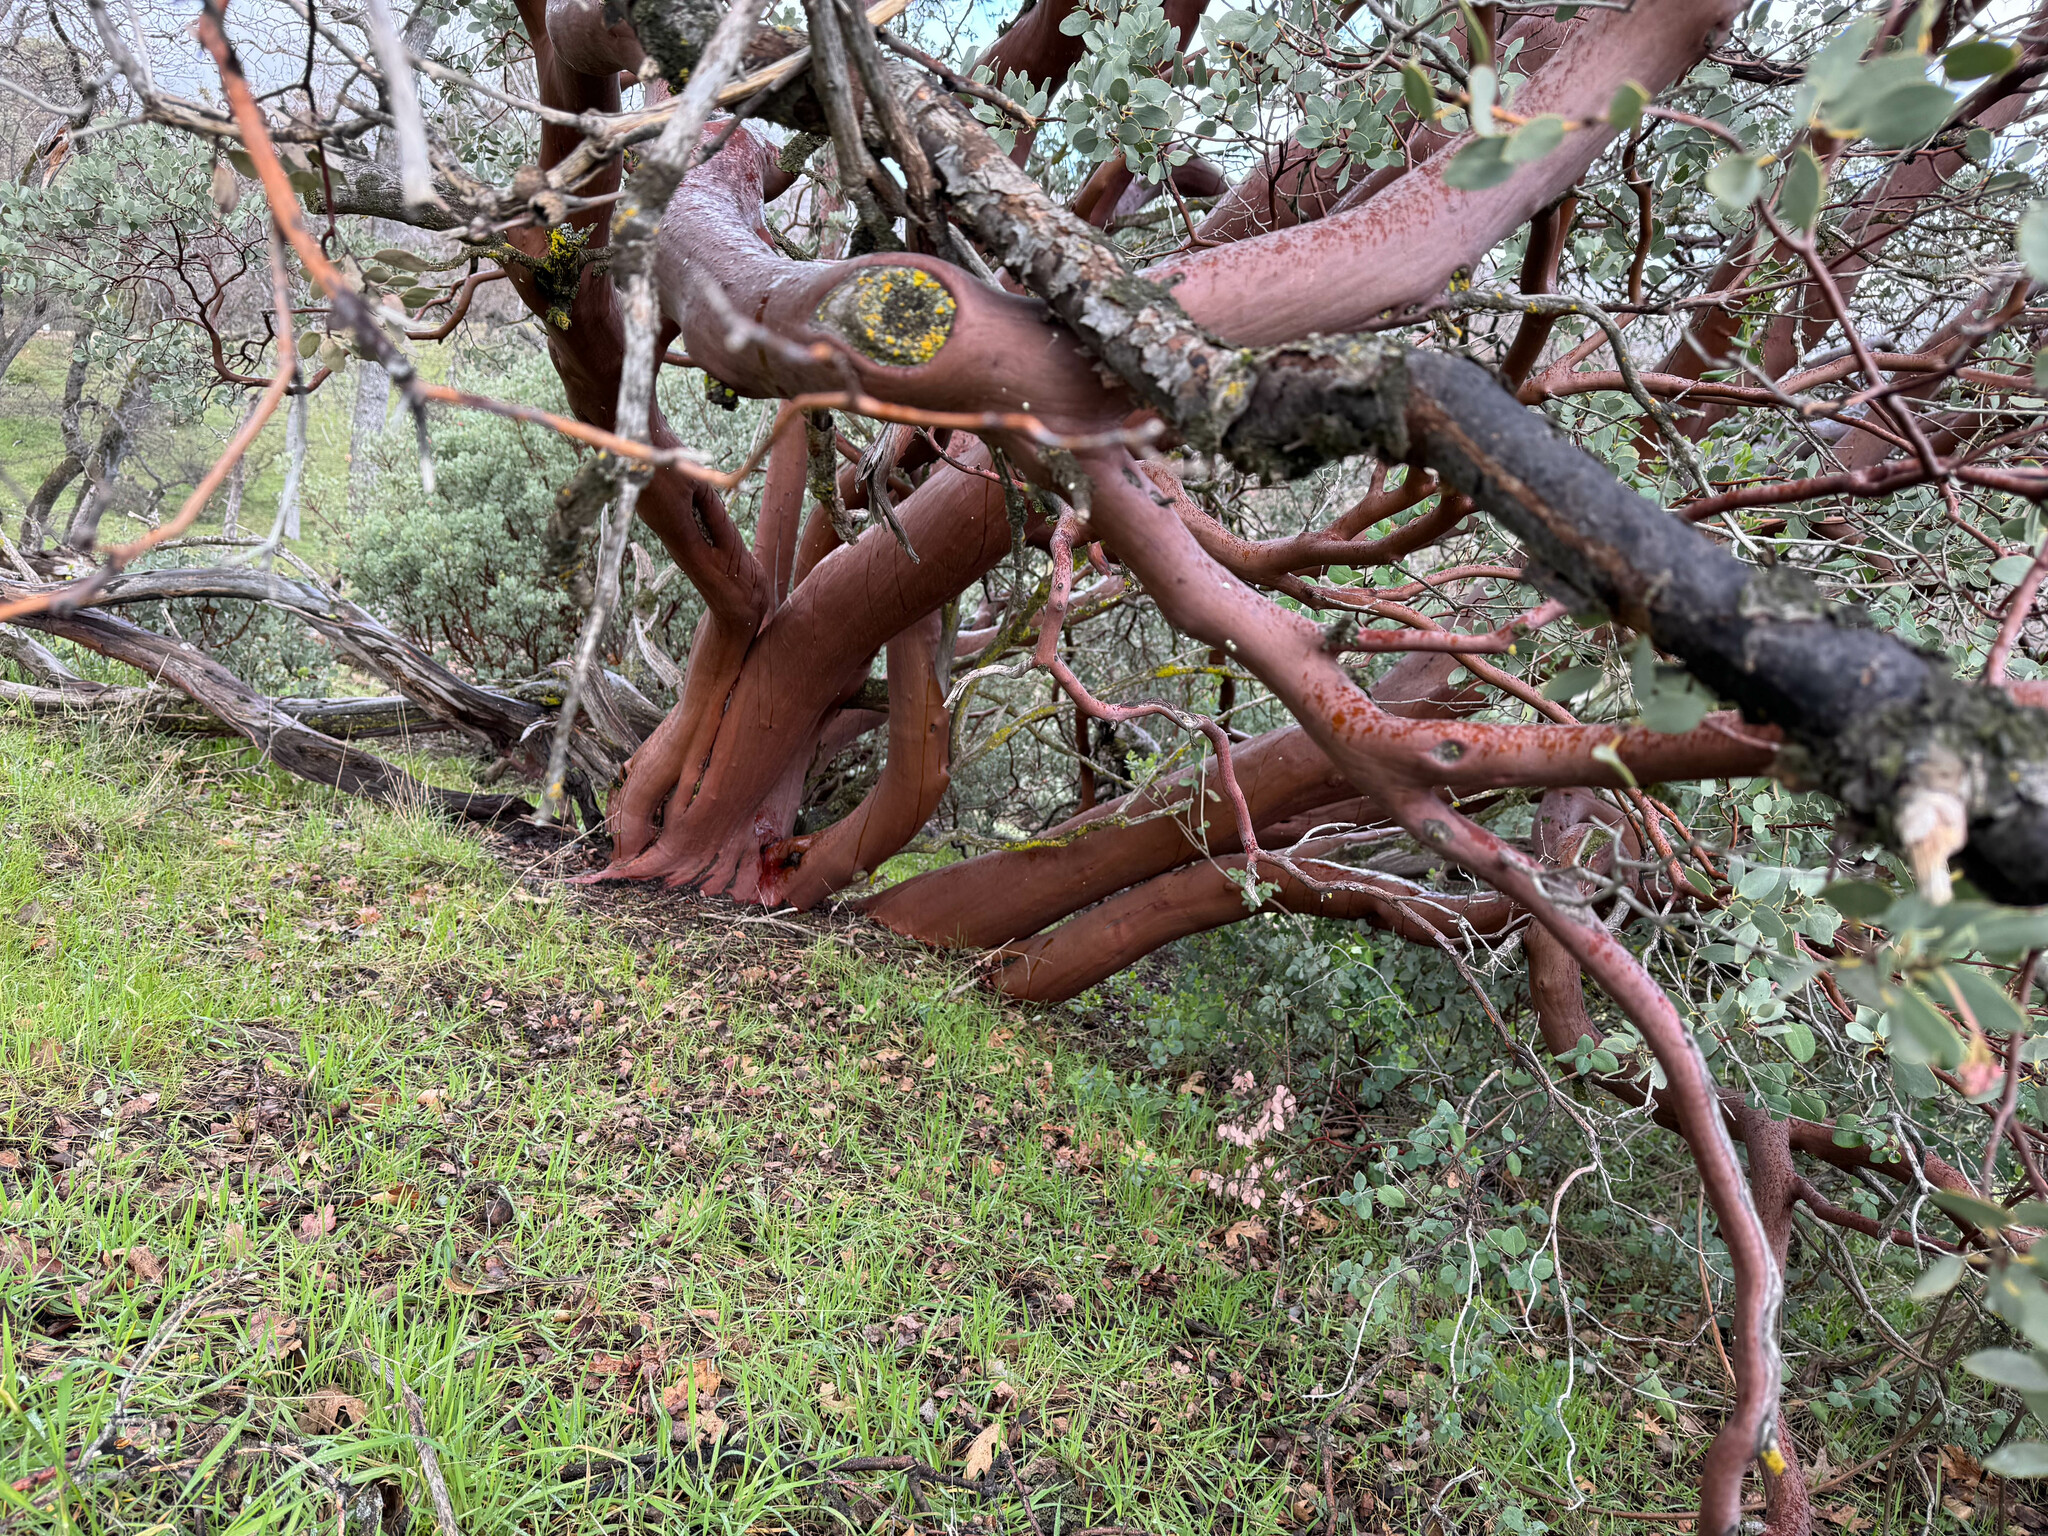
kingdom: Plantae
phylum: Tracheophyta
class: Magnoliopsida
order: Ericales
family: Ericaceae
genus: Arctostaphylos
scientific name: Arctostaphylos viscida
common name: White-leaf manzanita
